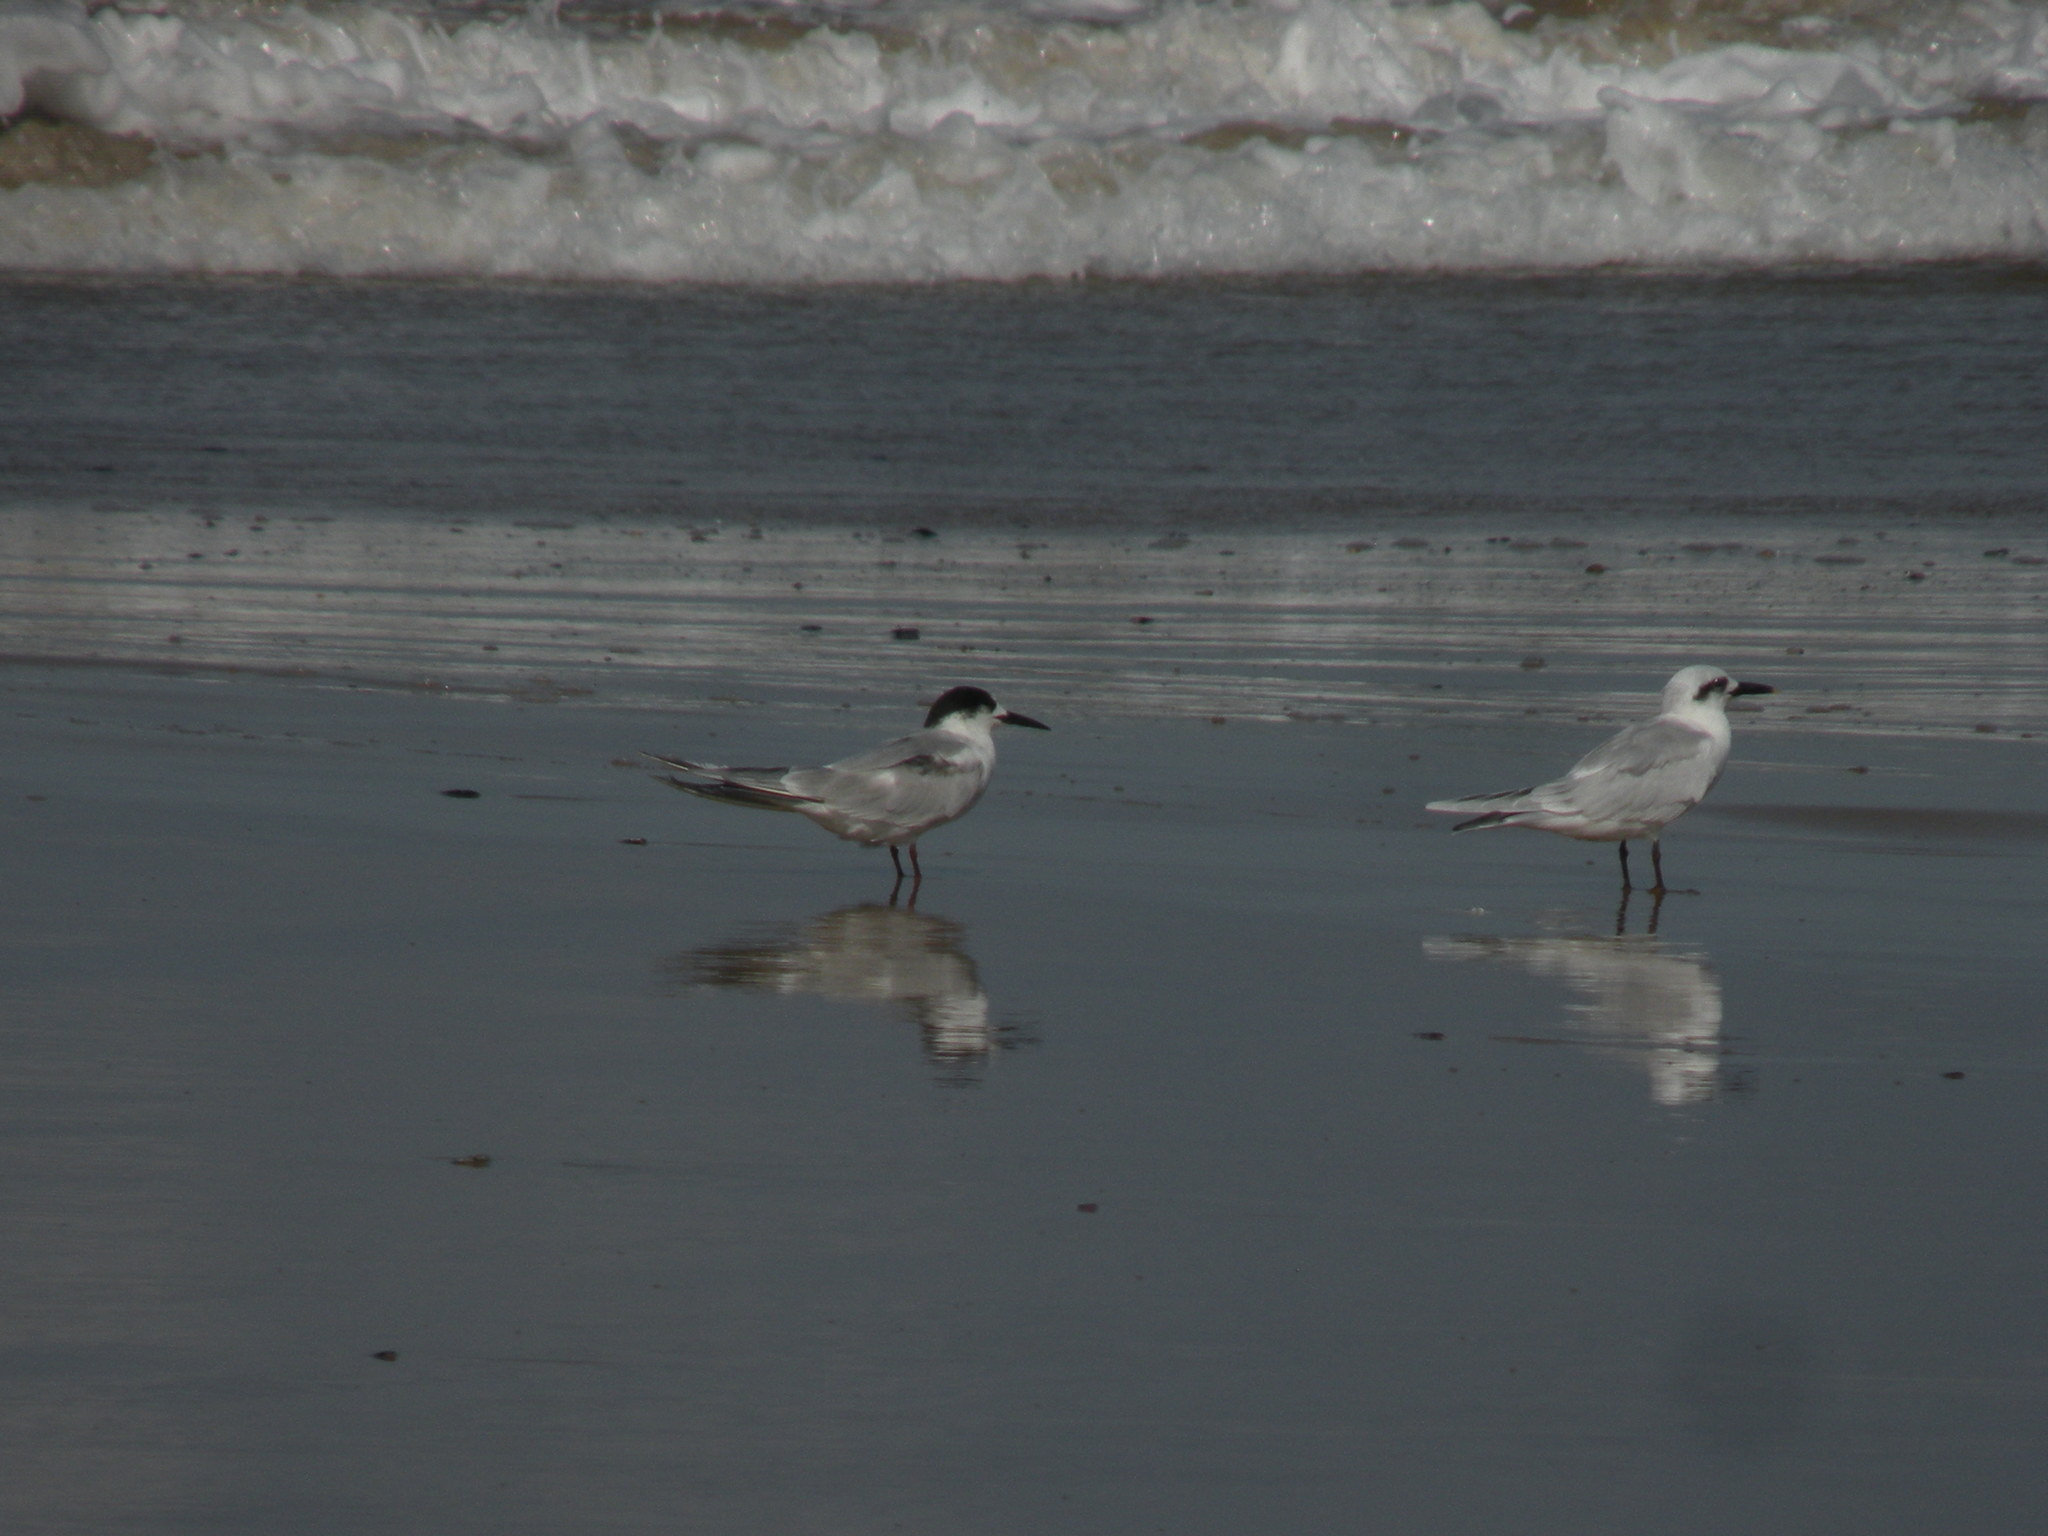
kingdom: Animalia
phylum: Chordata
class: Aves
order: Charadriiformes
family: Laridae
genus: Sterna
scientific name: Sterna hirundo
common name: Common tern
